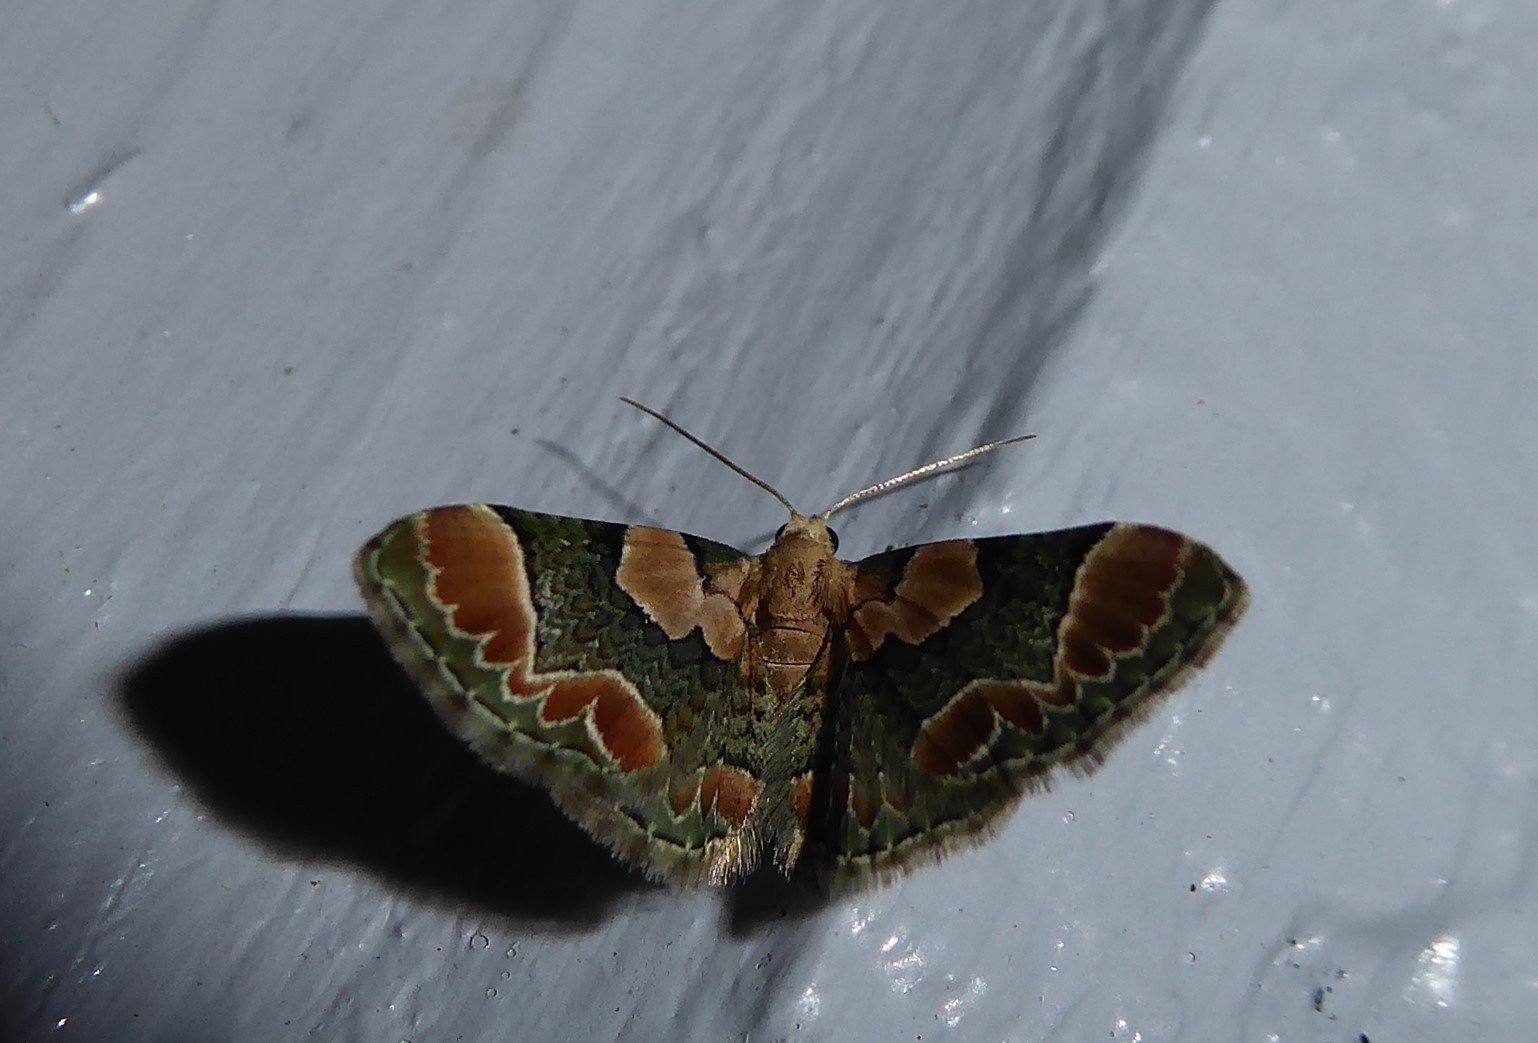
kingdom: Animalia
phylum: Arthropoda
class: Insecta
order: Lepidoptera
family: Geometridae
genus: Chloroclystis
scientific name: Chloroclystis
